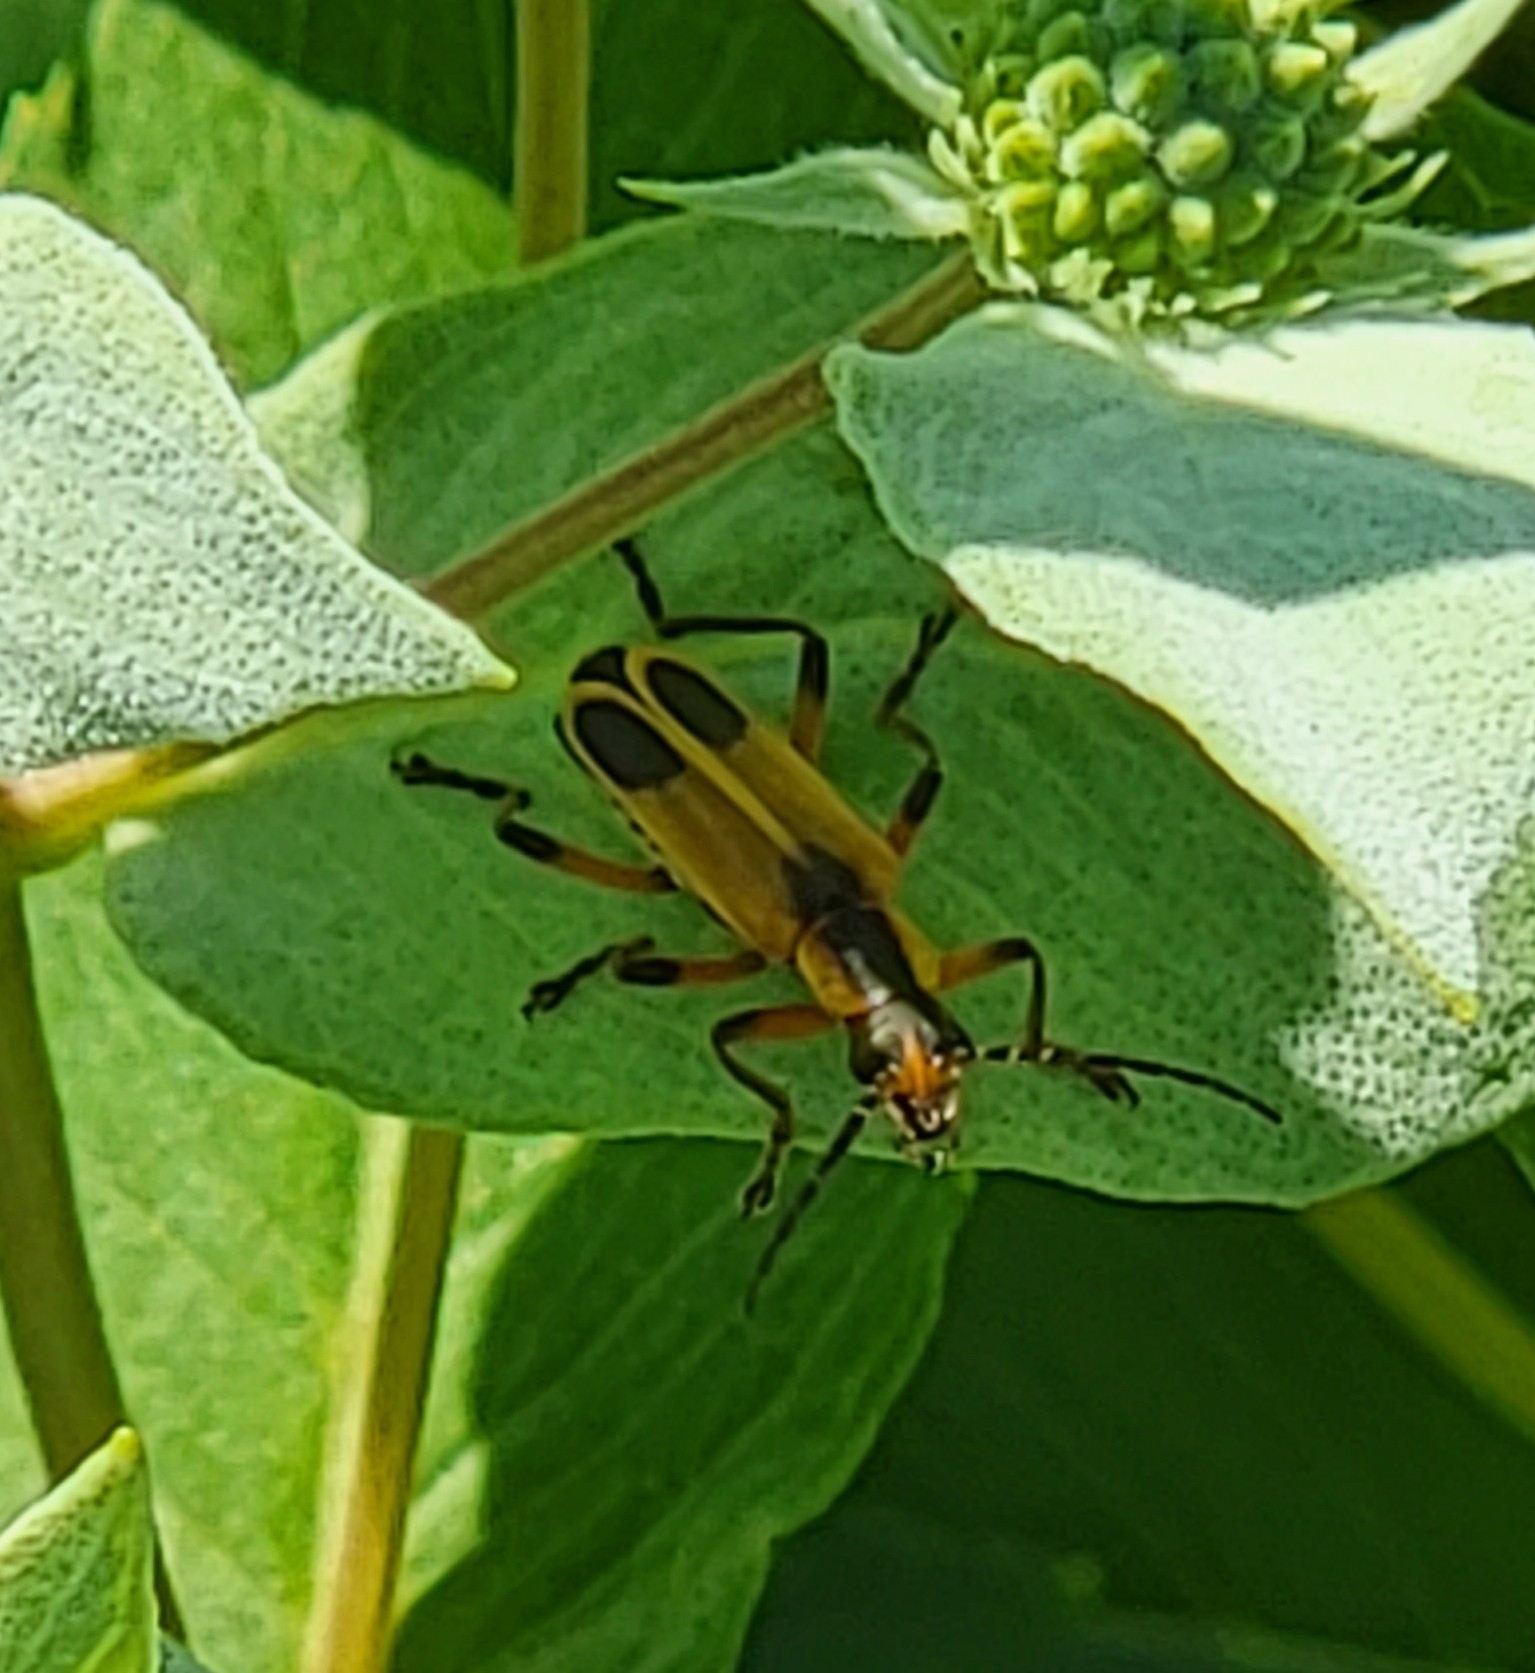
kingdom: Animalia
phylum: Arthropoda
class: Insecta
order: Coleoptera
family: Cantharidae
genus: Chauliognathus
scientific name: Chauliognathus marginatus
